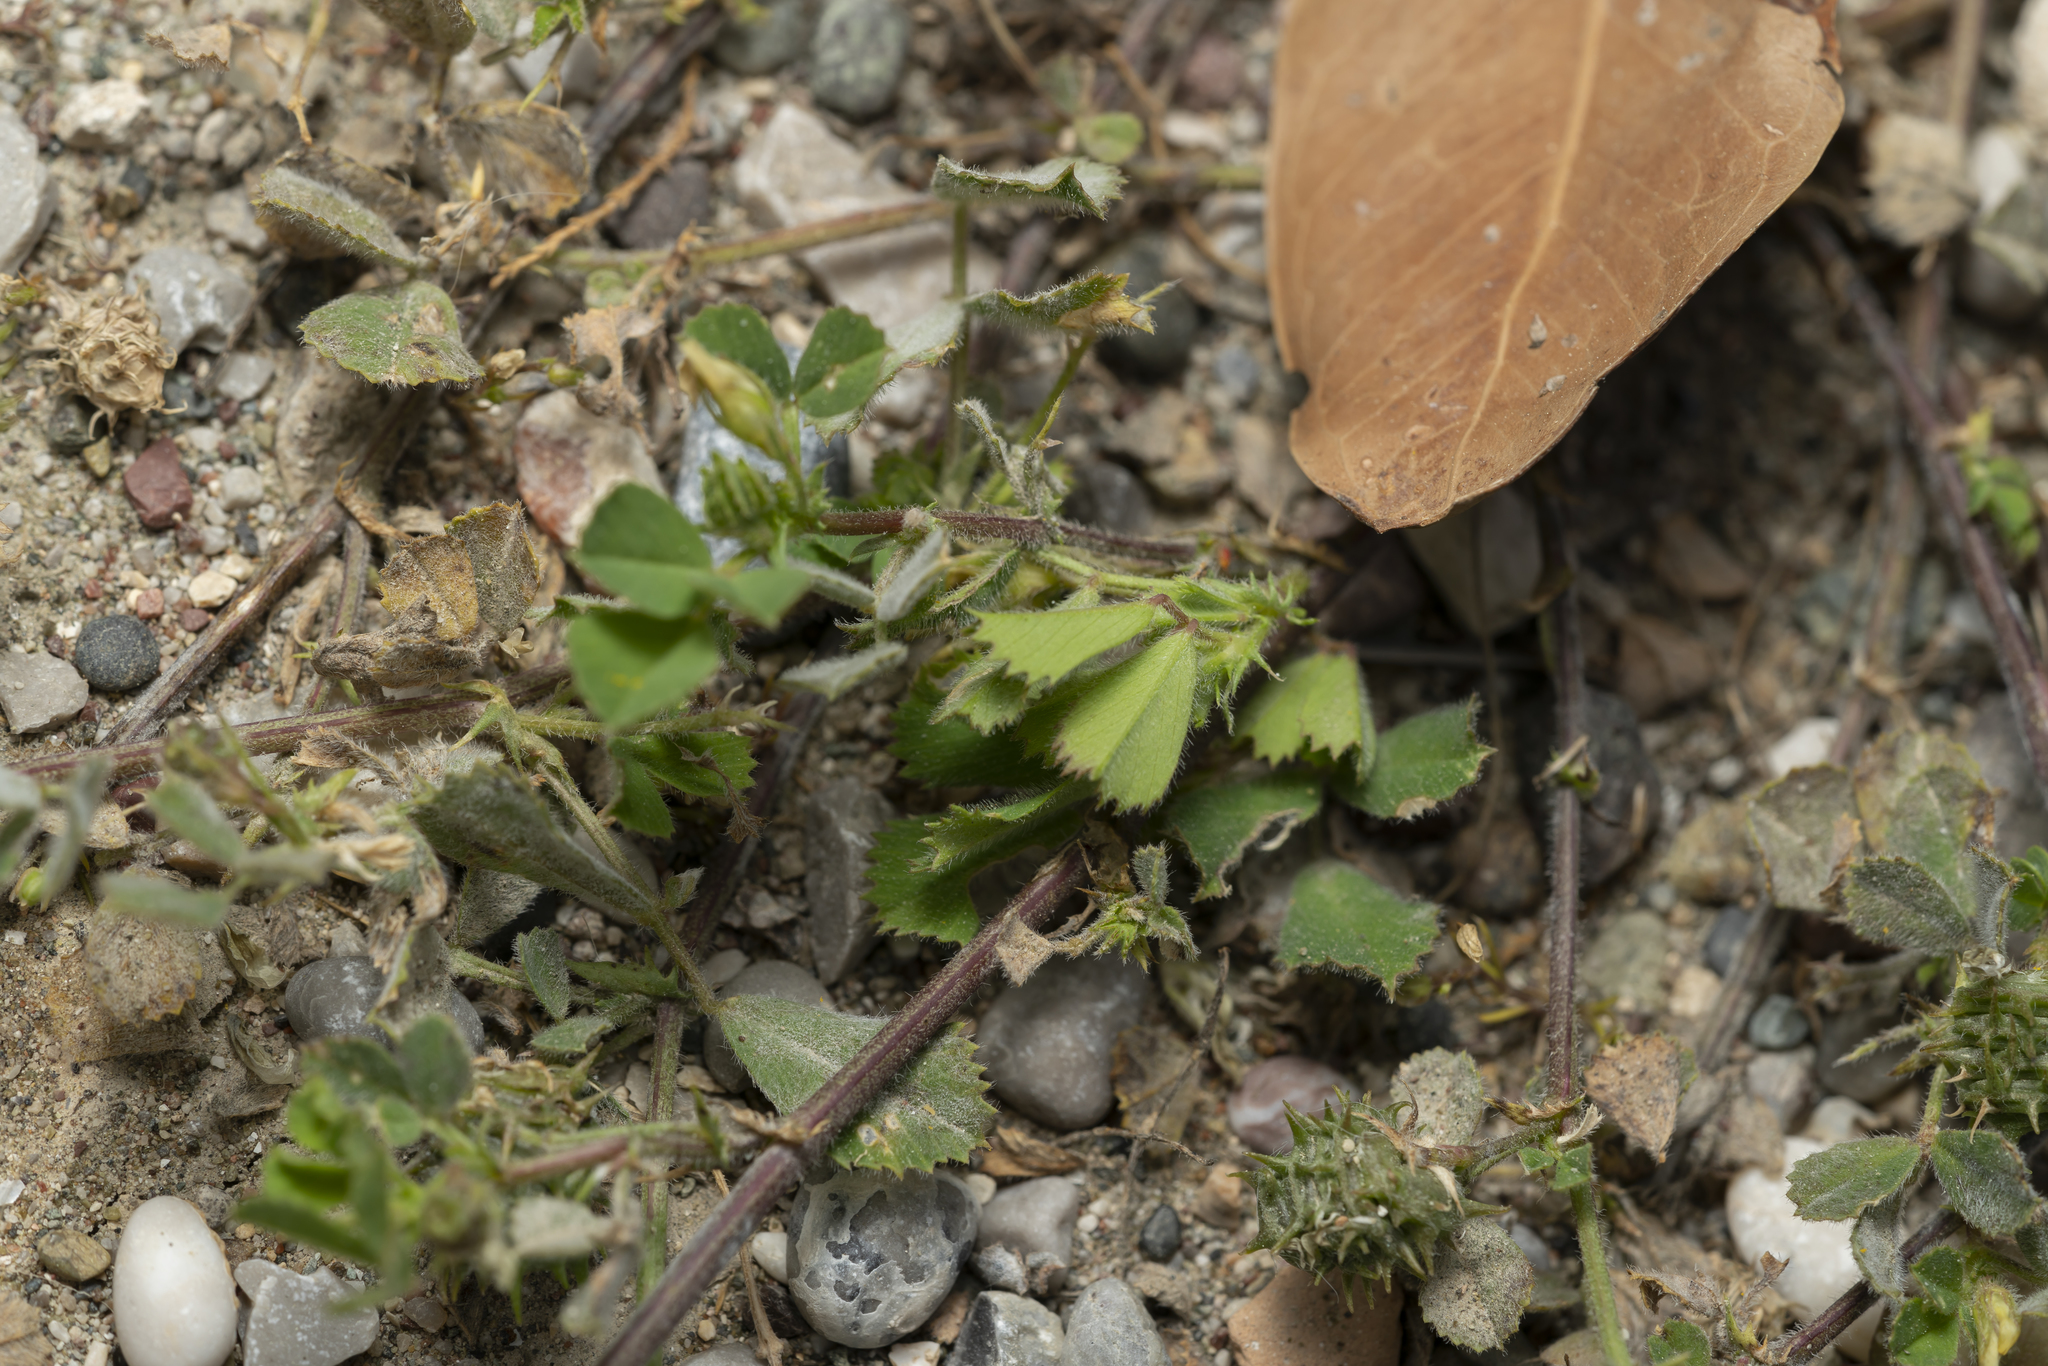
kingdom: Plantae
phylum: Tracheophyta
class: Magnoliopsida
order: Fabales
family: Fabaceae
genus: Medicago
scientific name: Medicago truncatula
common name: Strong-spined medick
